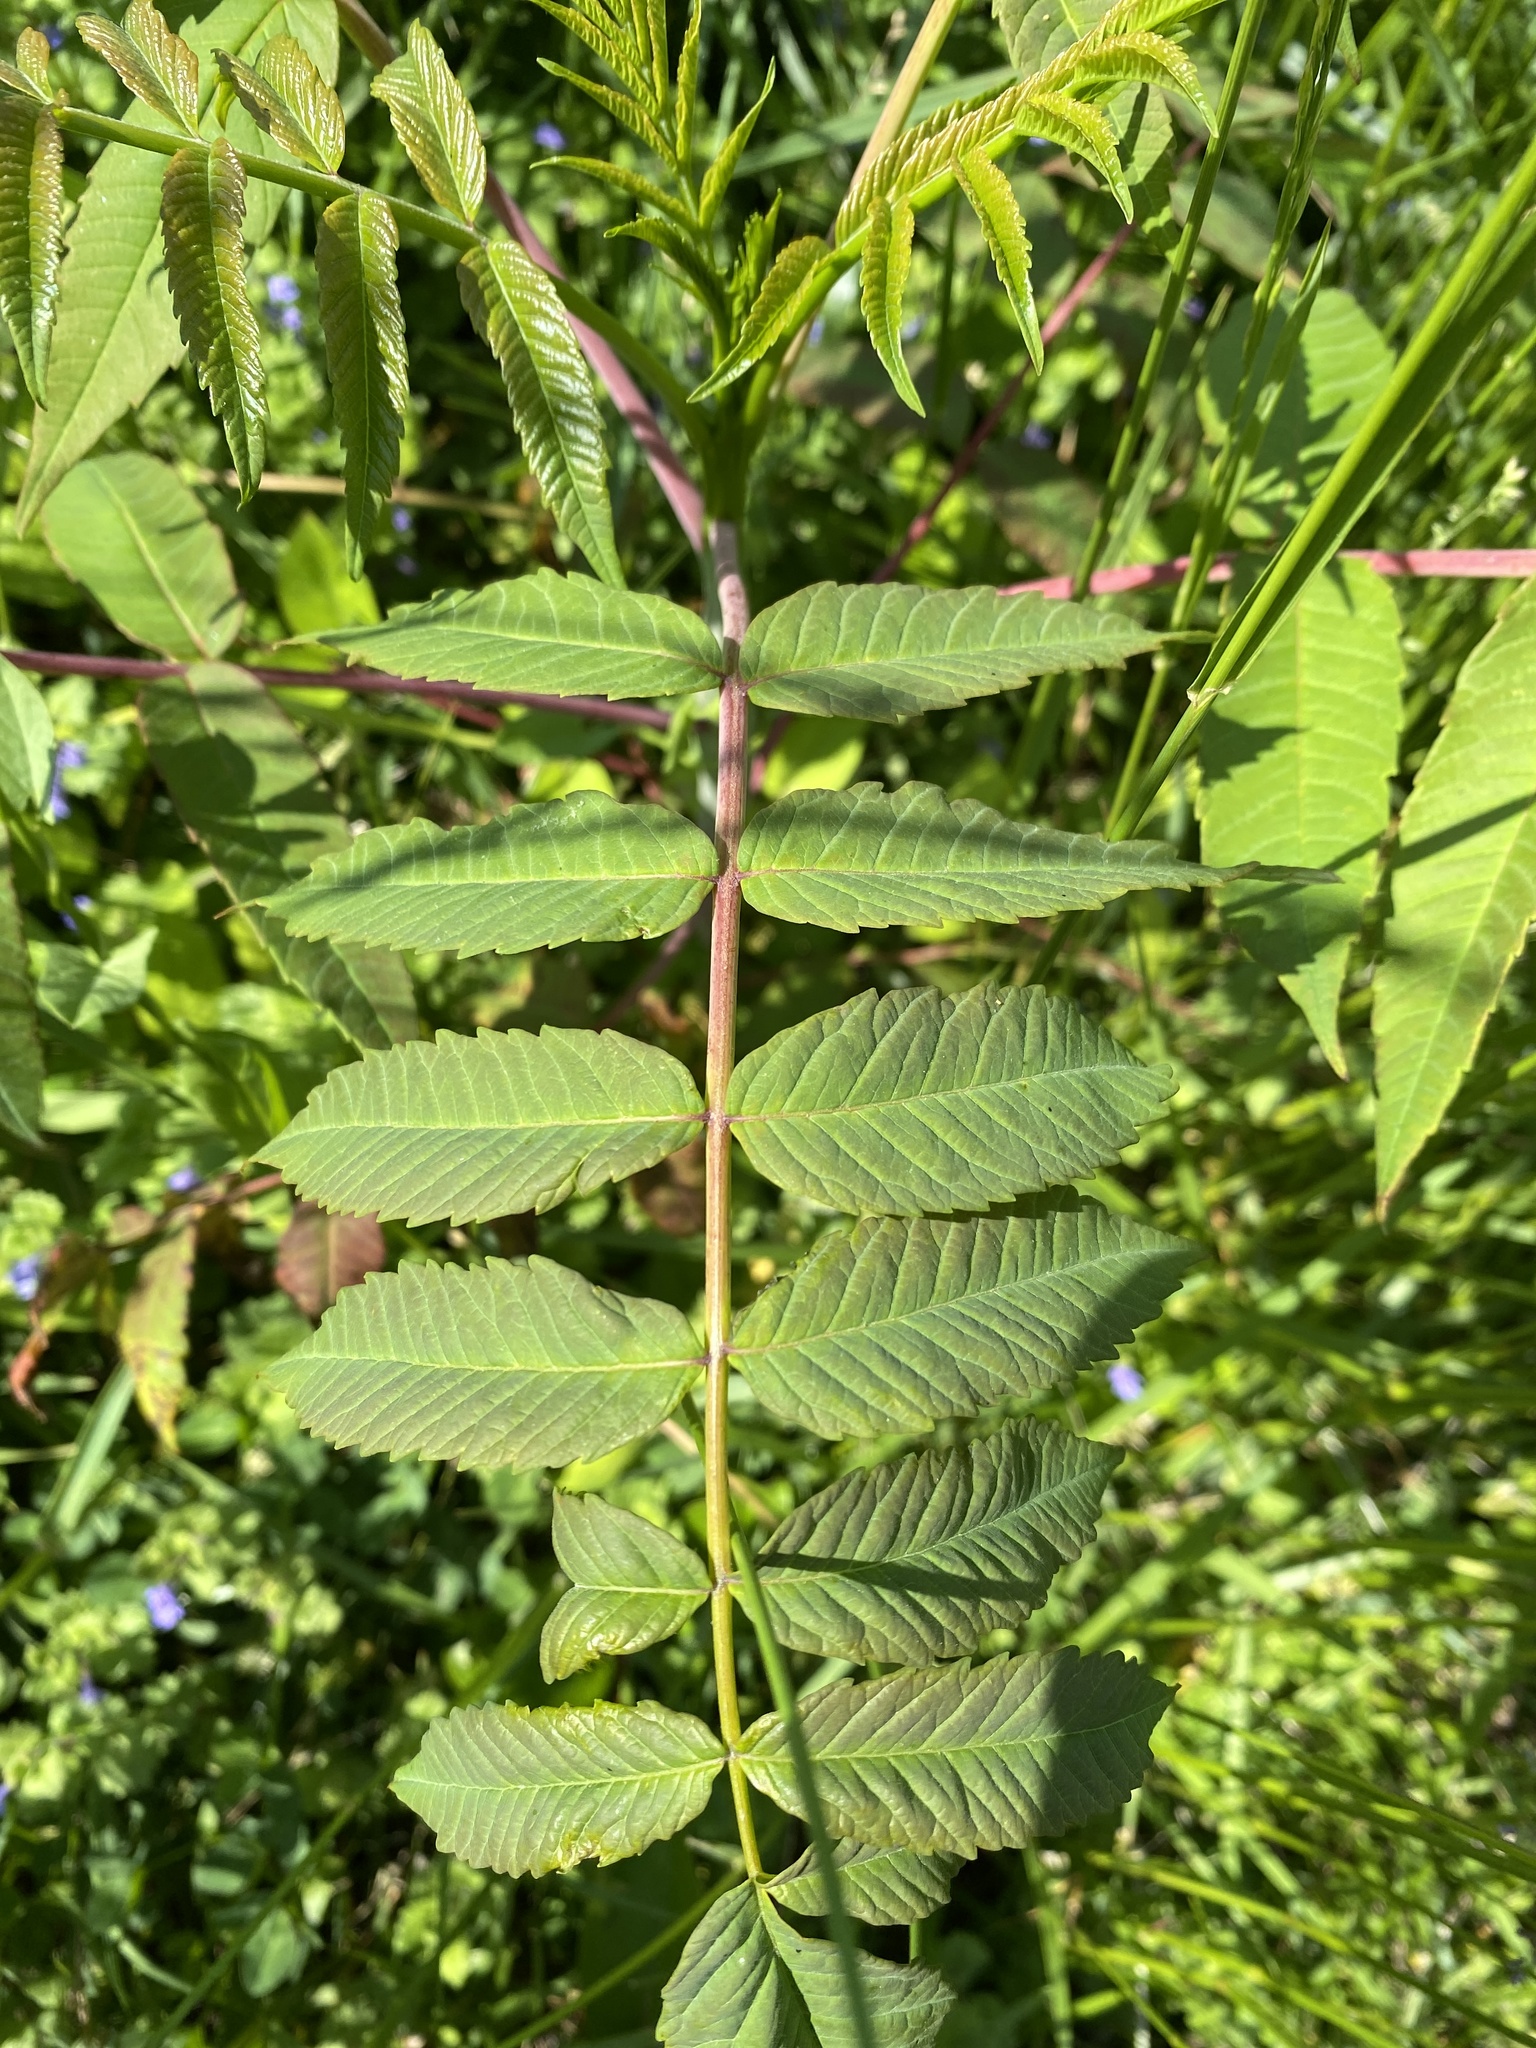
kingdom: Plantae
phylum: Tracheophyta
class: Magnoliopsida
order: Sapindales
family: Anacardiaceae
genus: Rhus
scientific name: Rhus glabra
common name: Scarlet sumac
